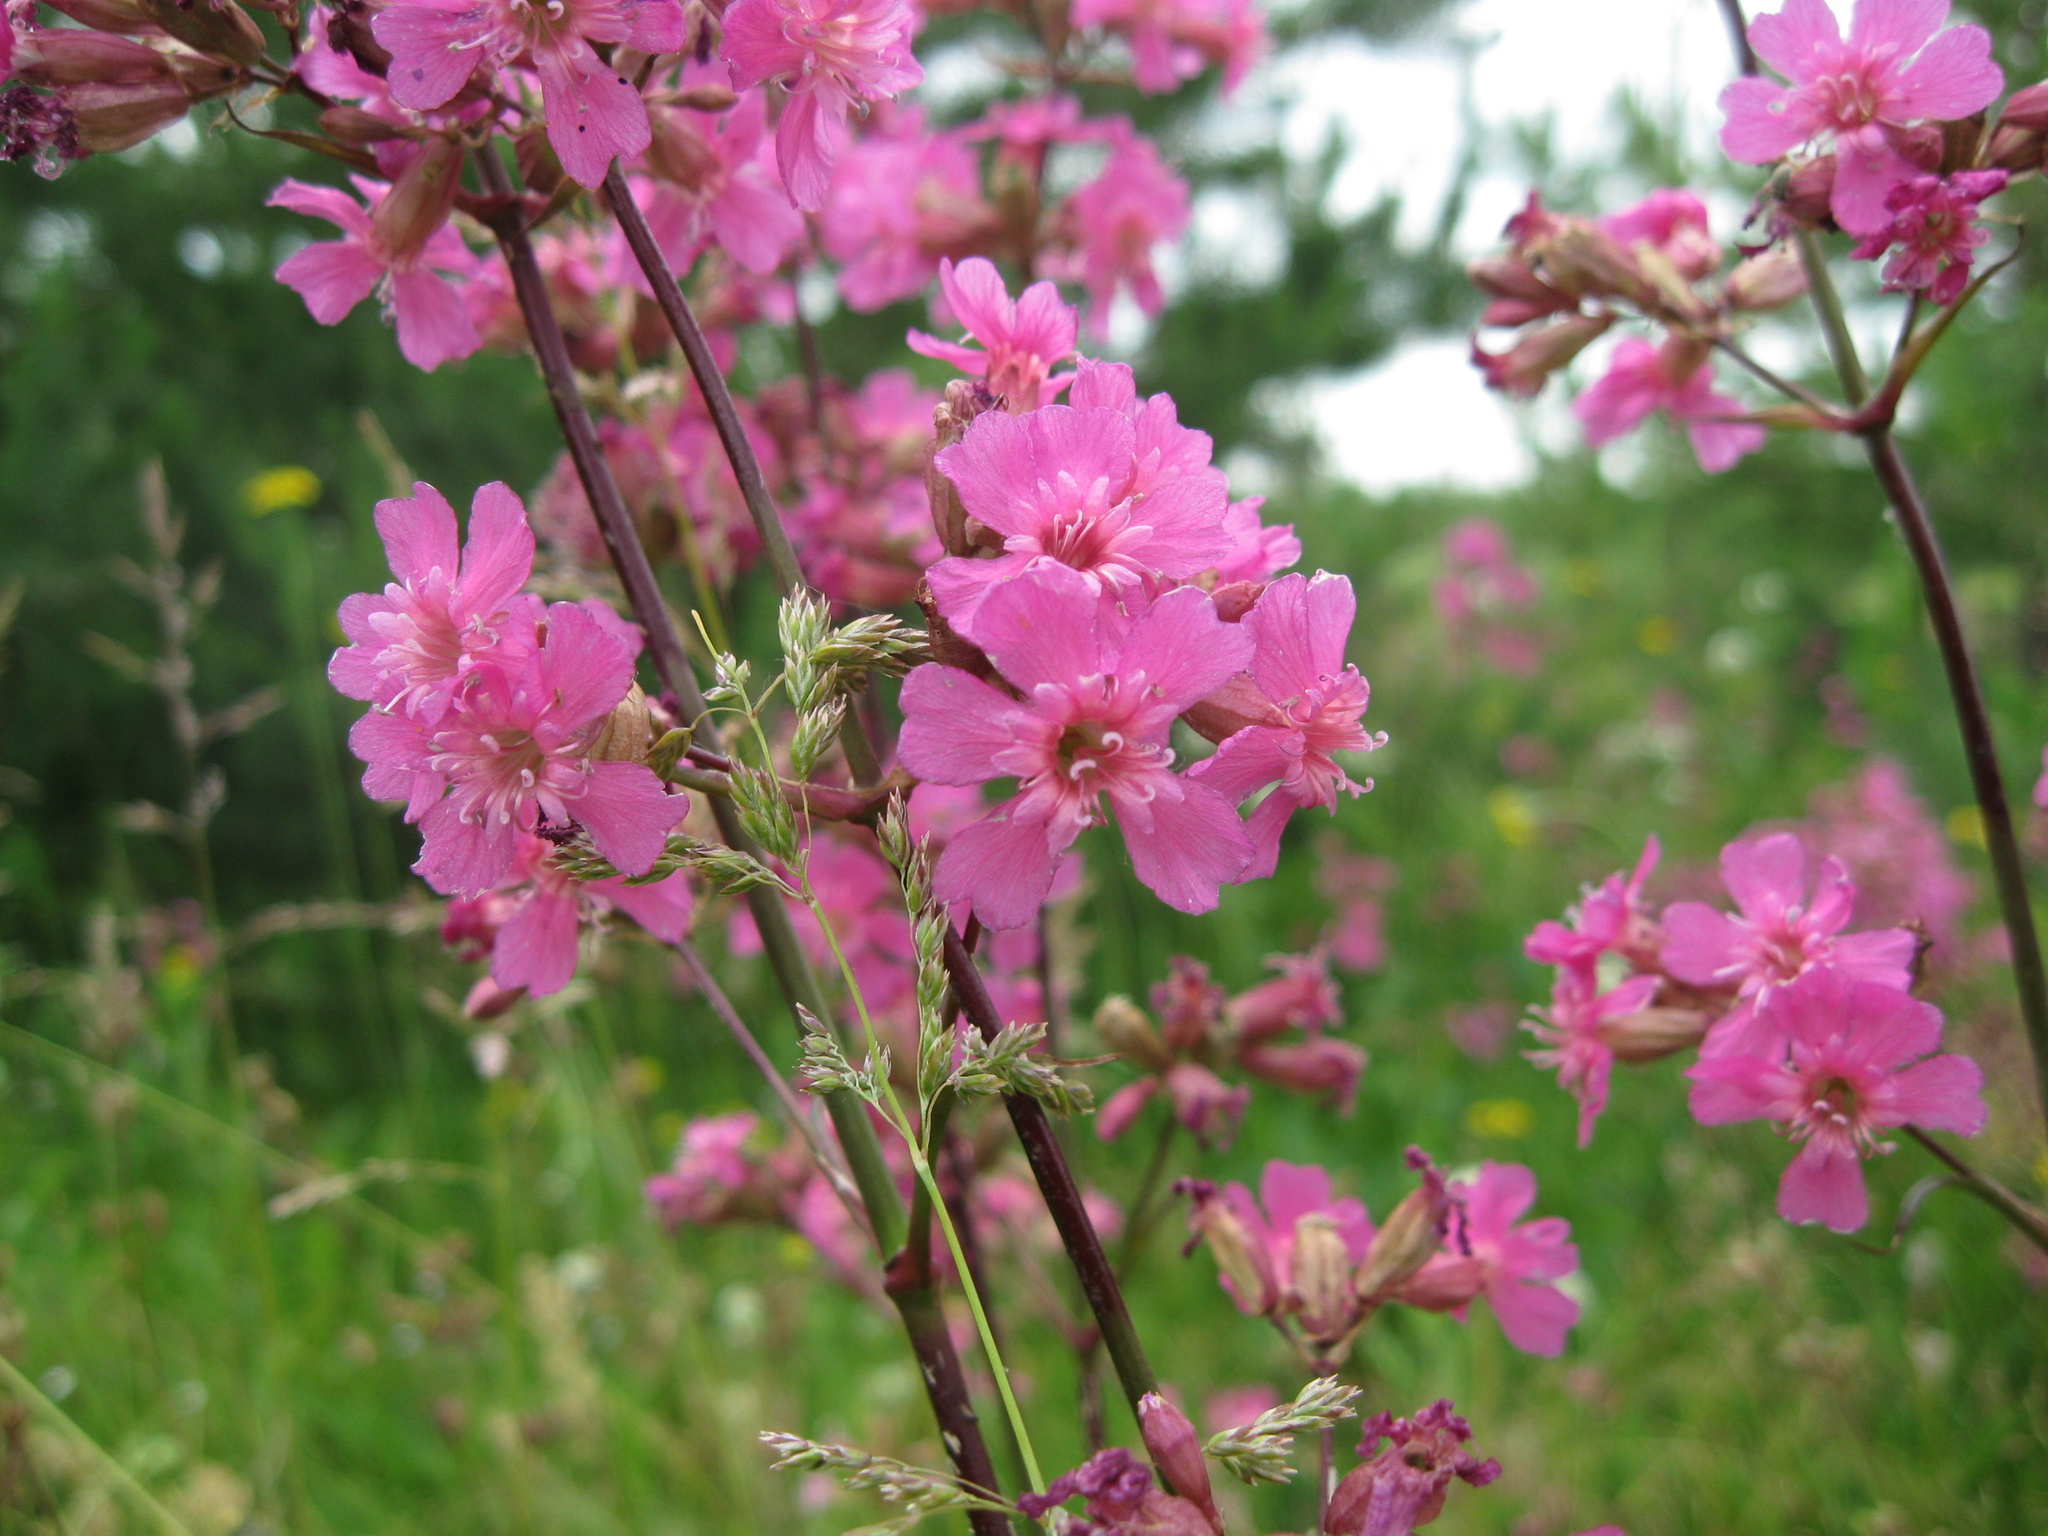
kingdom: Plantae
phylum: Tracheophyta
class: Magnoliopsida
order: Caryophyllales
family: Caryophyllaceae
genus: Viscaria
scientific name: Viscaria vulgaris
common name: Clammy campion
